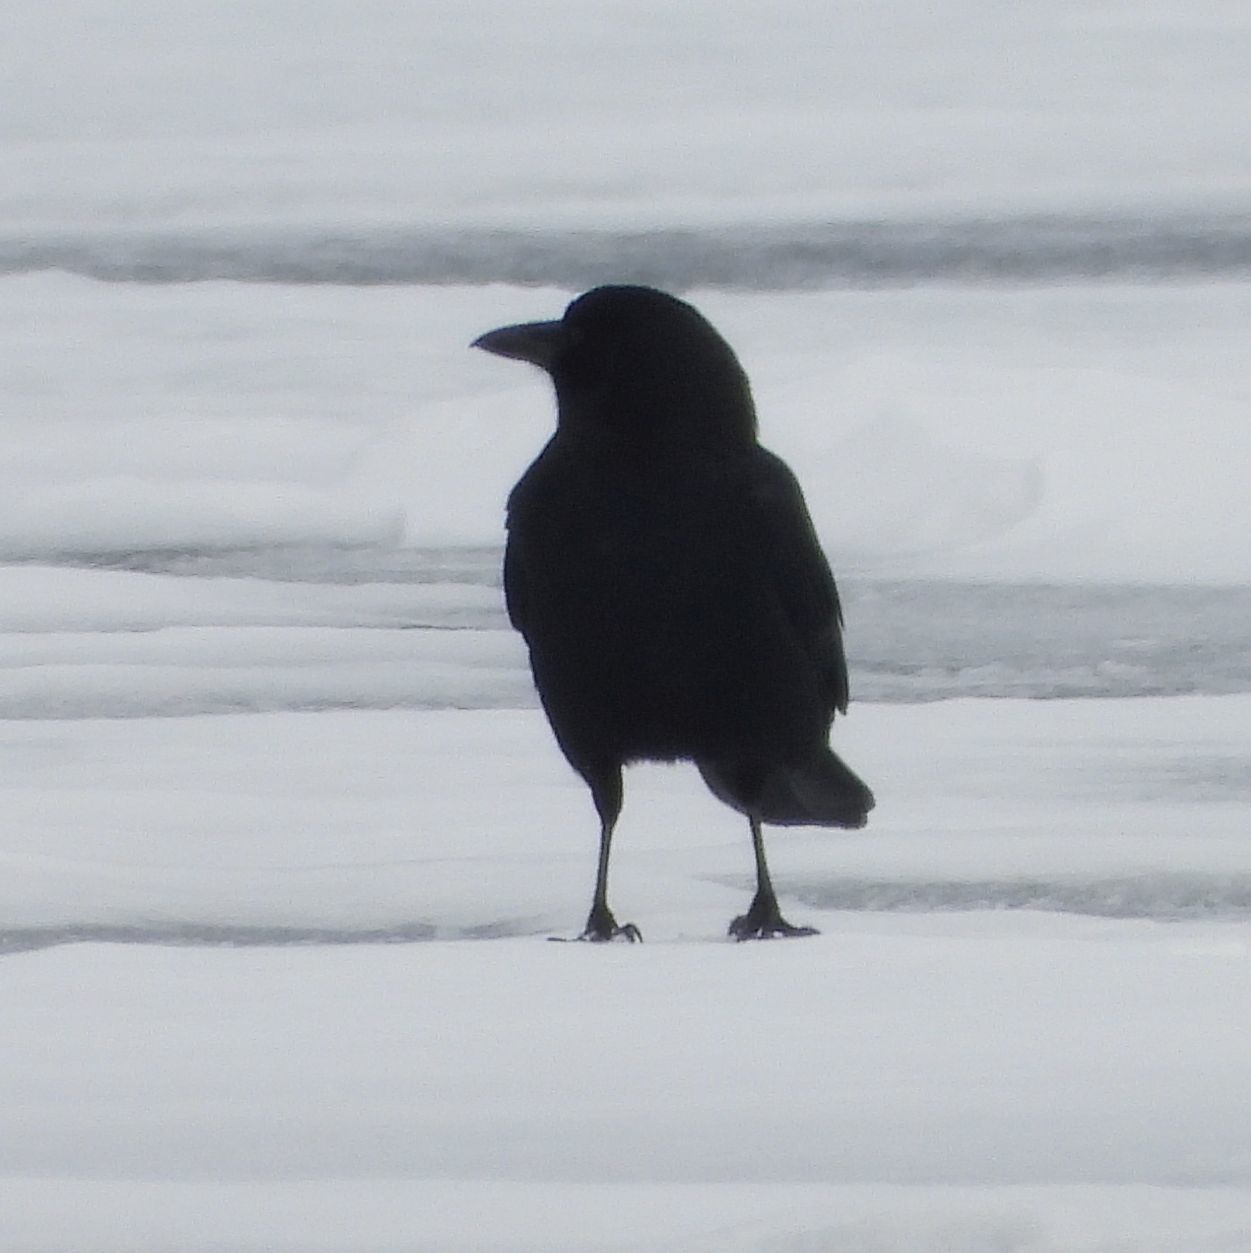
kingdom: Animalia
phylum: Chordata
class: Aves
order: Passeriformes
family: Corvidae
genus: Corvus
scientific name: Corvus brachyrhynchos
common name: American crow
